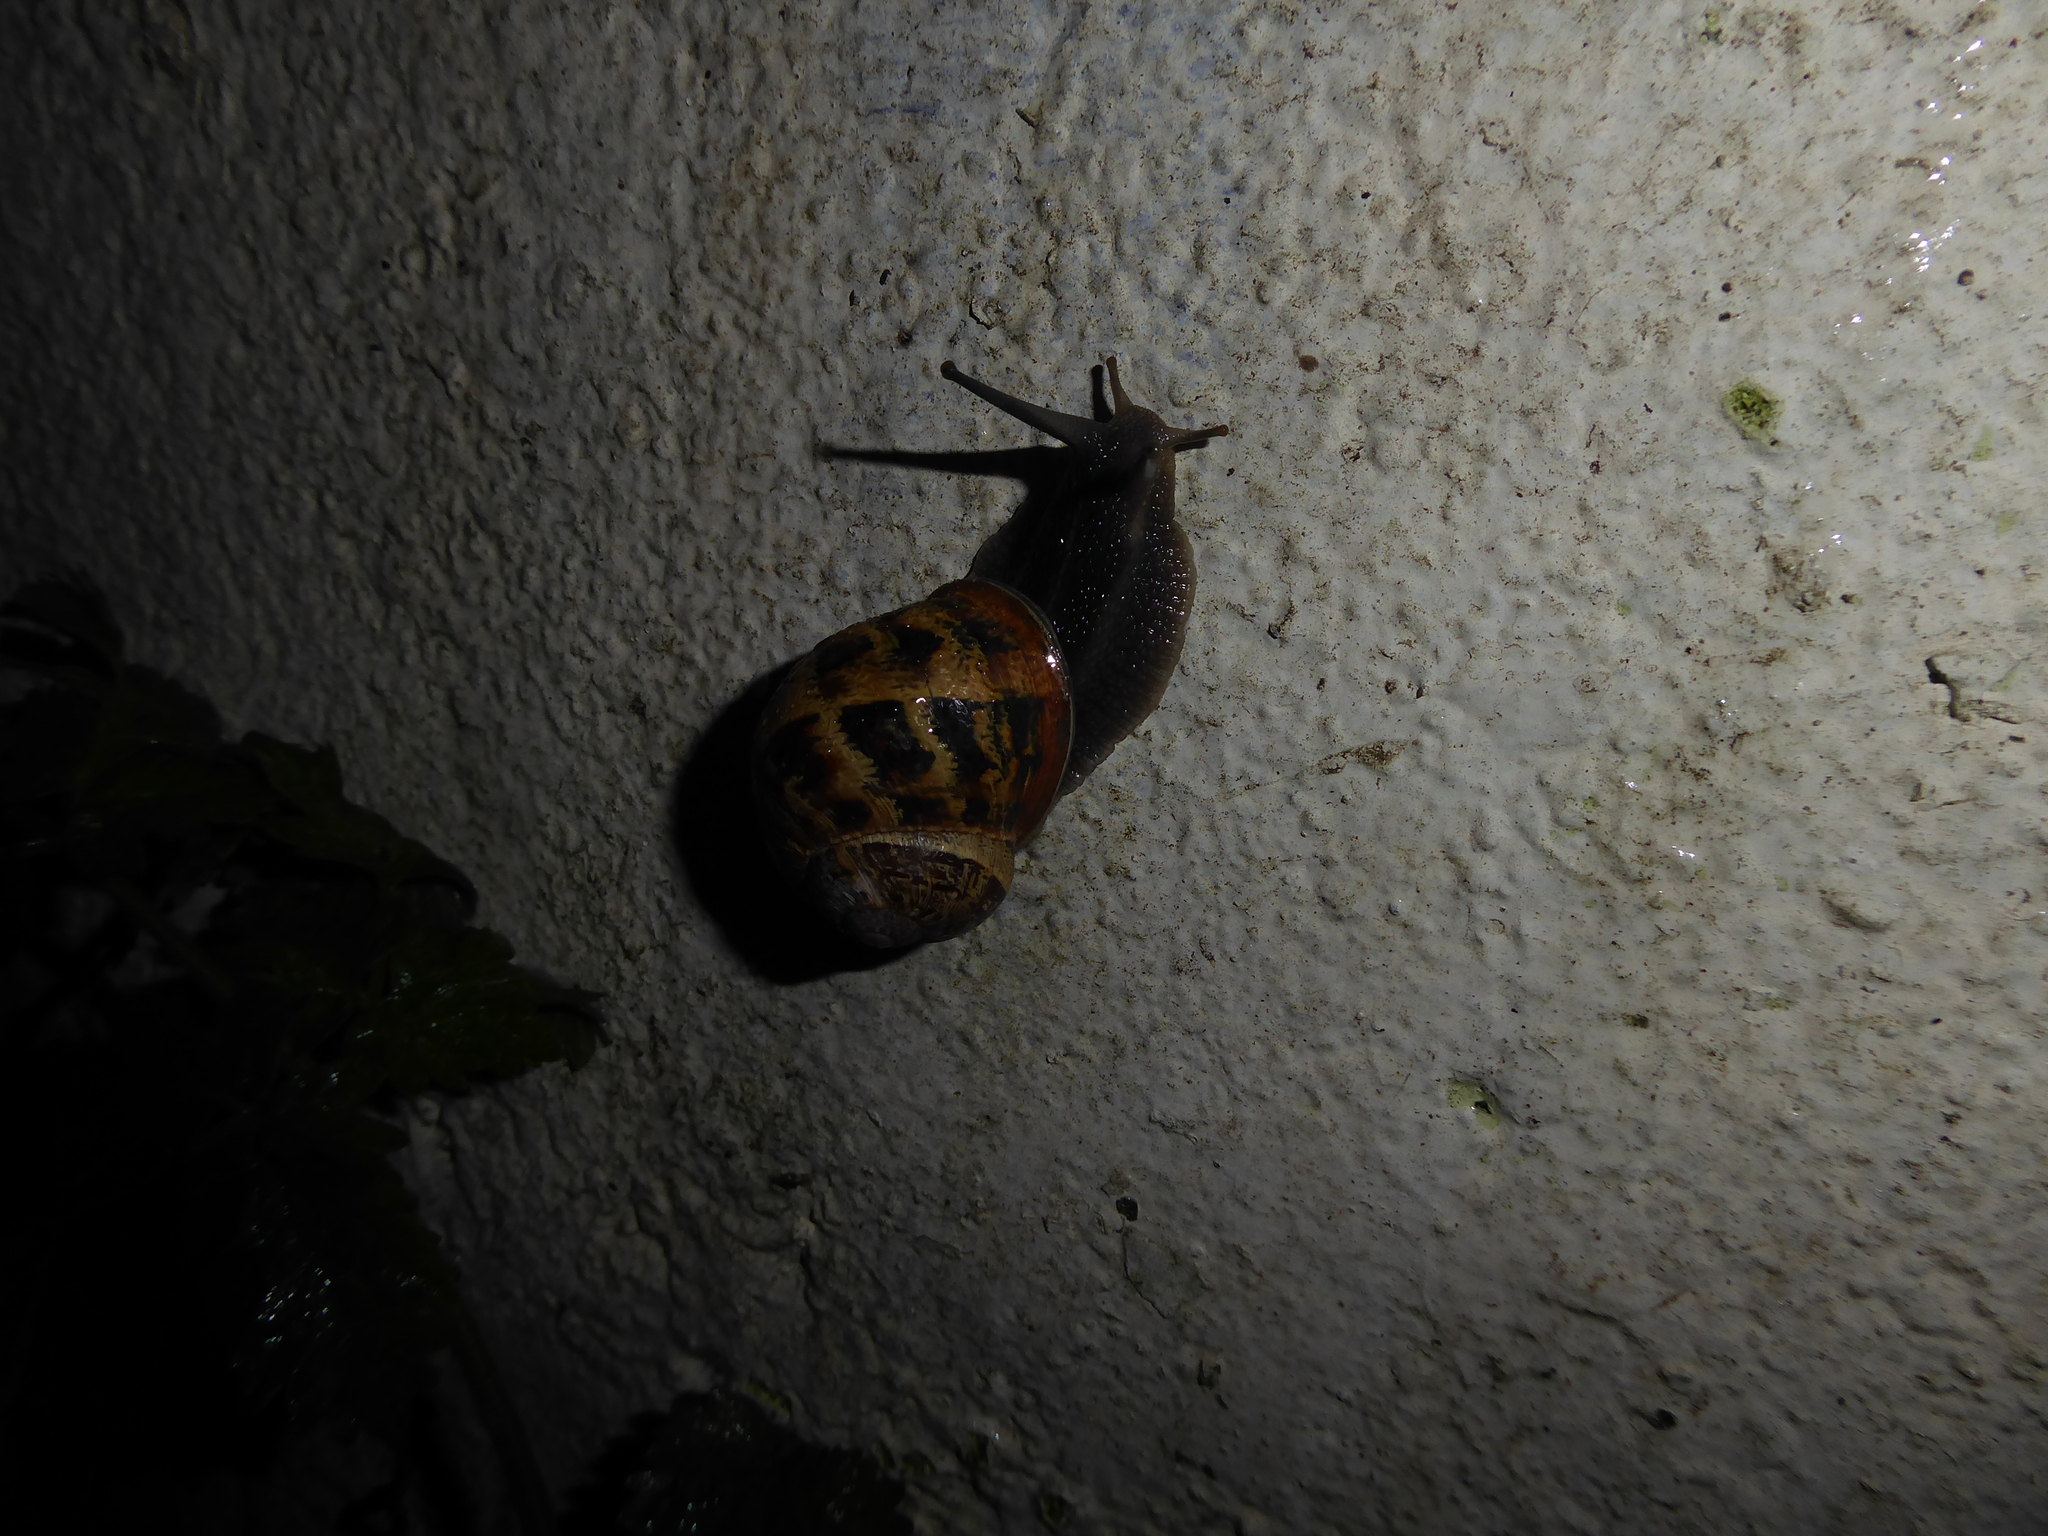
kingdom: Animalia
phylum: Mollusca
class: Gastropoda
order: Stylommatophora
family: Helicidae
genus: Cornu
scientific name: Cornu aspersum
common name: Brown garden snail
